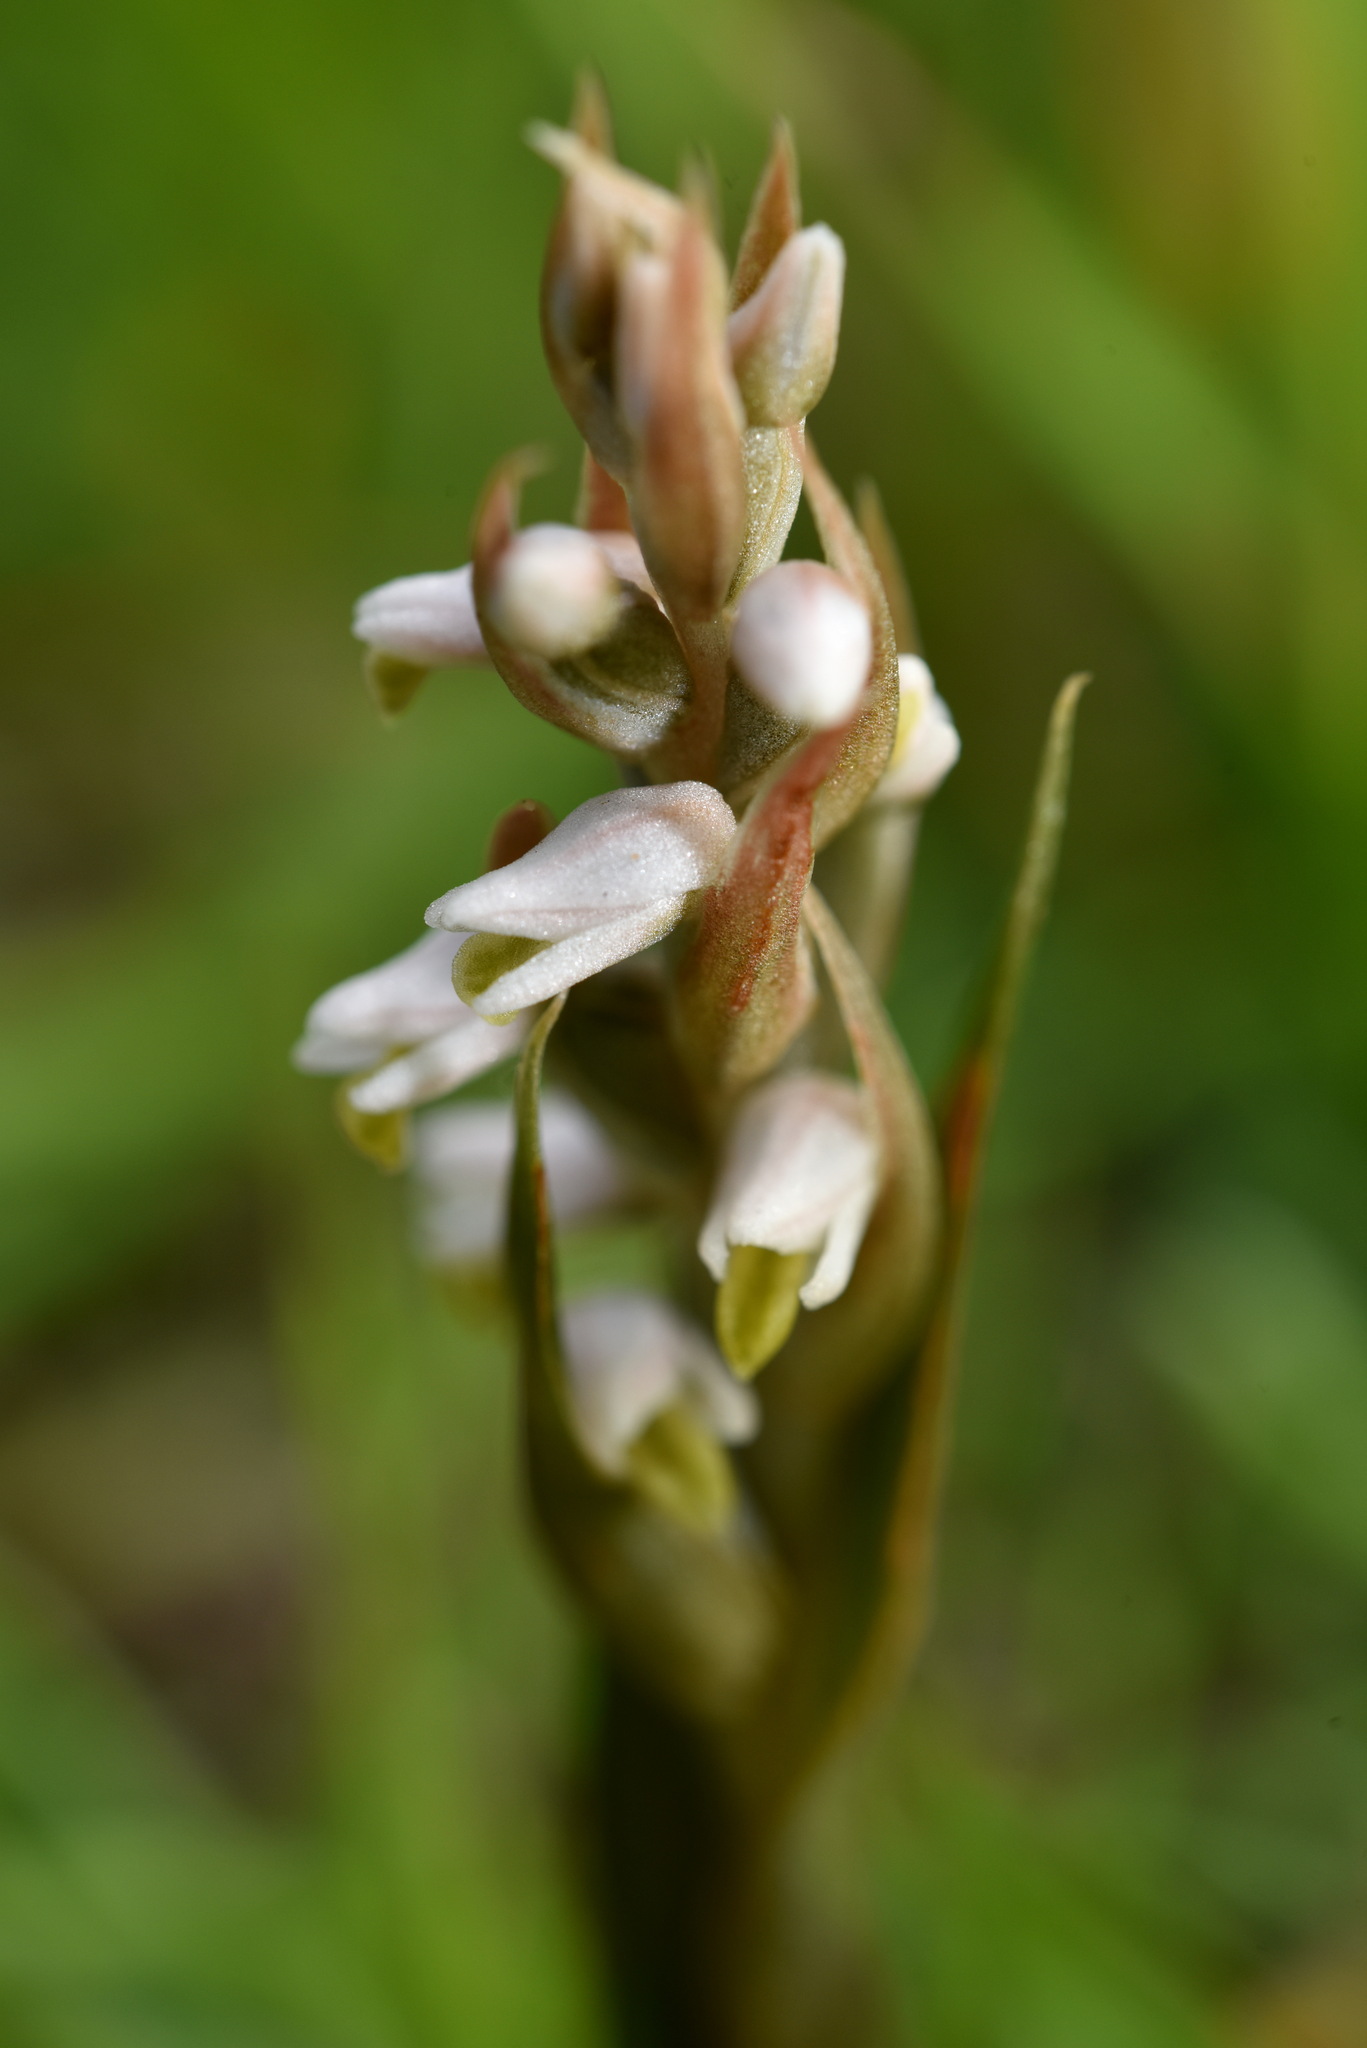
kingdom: Plantae
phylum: Tracheophyta
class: Liliopsida
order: Asparagales
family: Orchidaceae
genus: Zeuxine
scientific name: Zeuxine strateumatica
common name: Soldier's orchid
